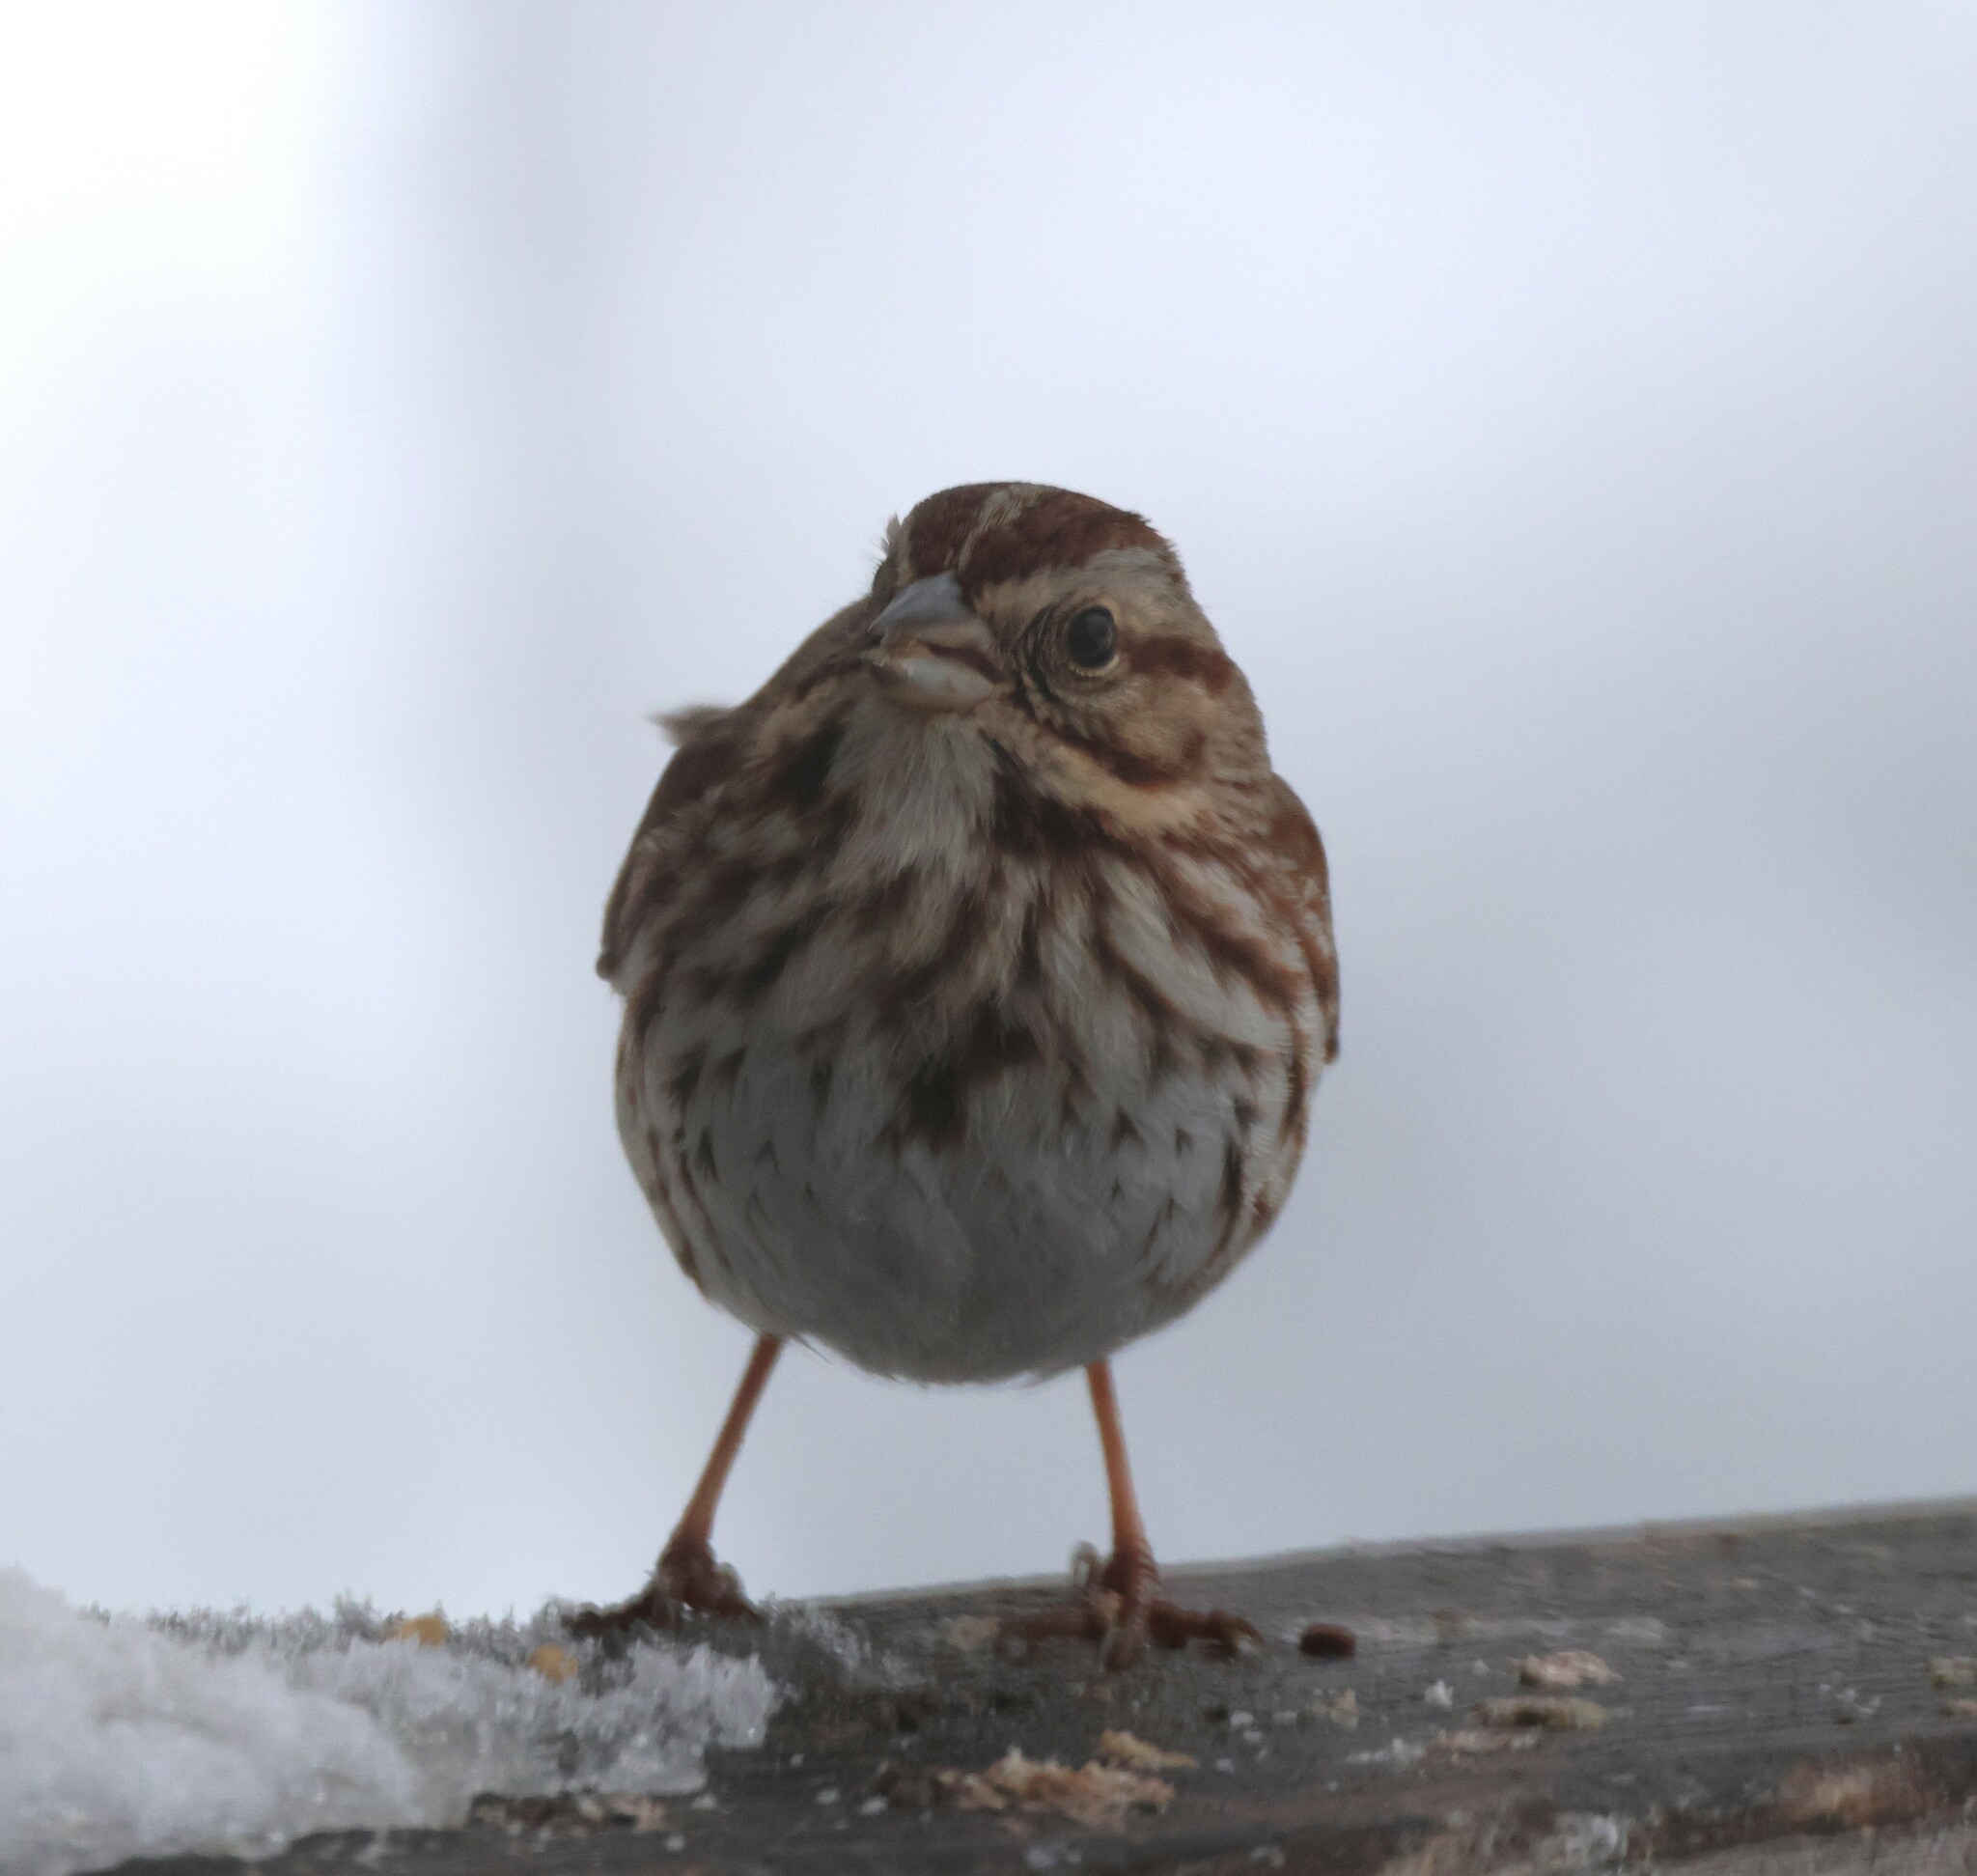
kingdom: Animalia
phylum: Chordata
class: Aves
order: Passeriformes
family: Passerellidae
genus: Melospiza
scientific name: Melospiza melodia
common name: Song sparrow
